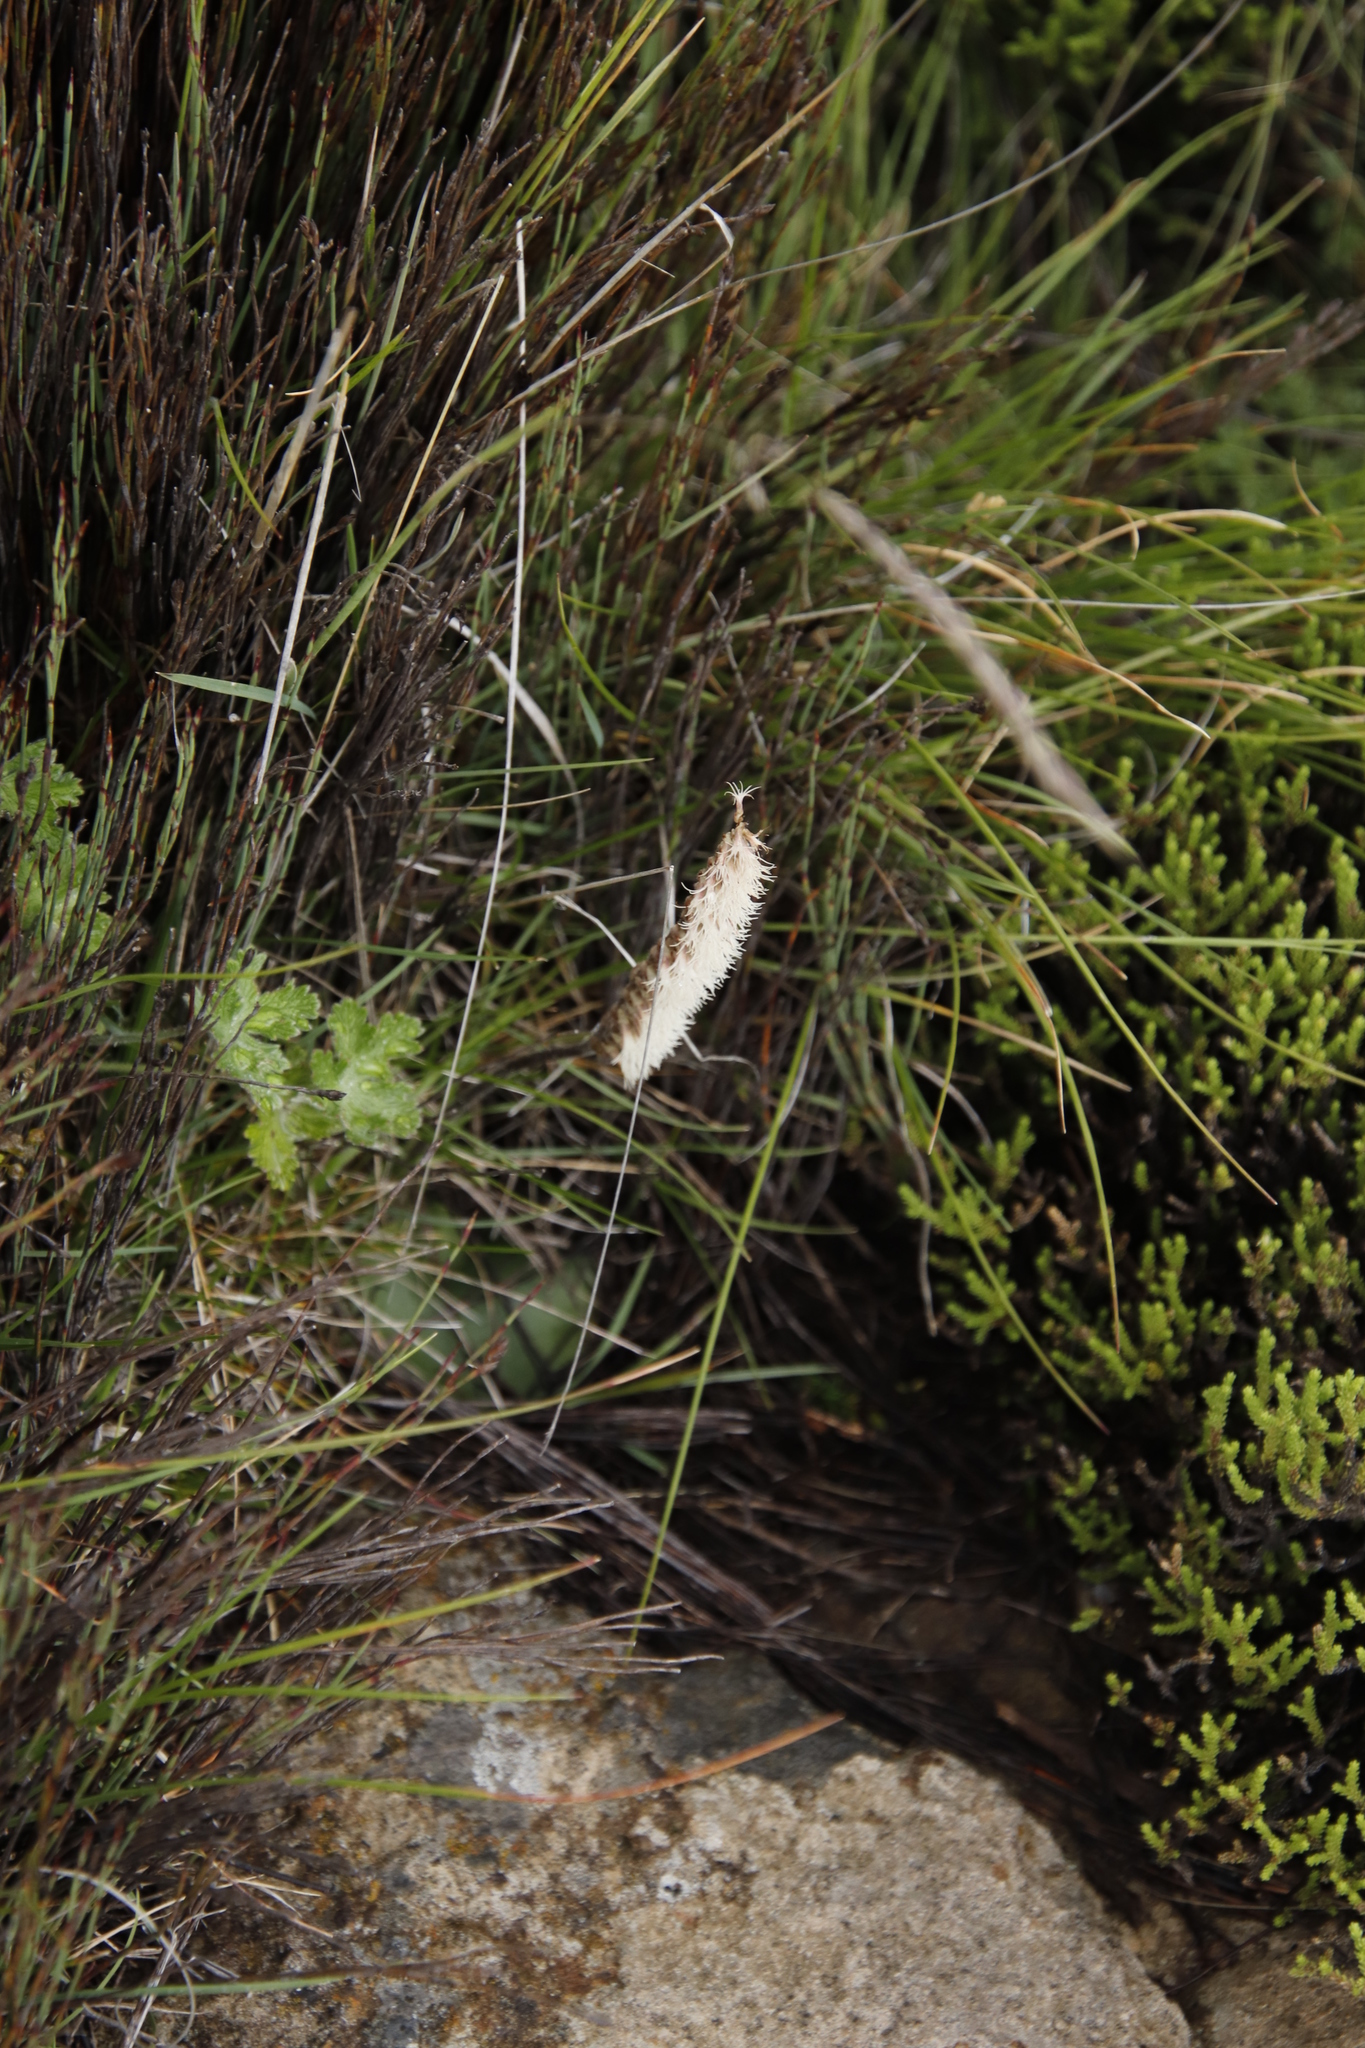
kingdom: Plantae
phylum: Tracheophyta
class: Liliopsida
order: Asparagales
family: Orchidaceae
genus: Holothrix
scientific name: Holothrix scopularia
